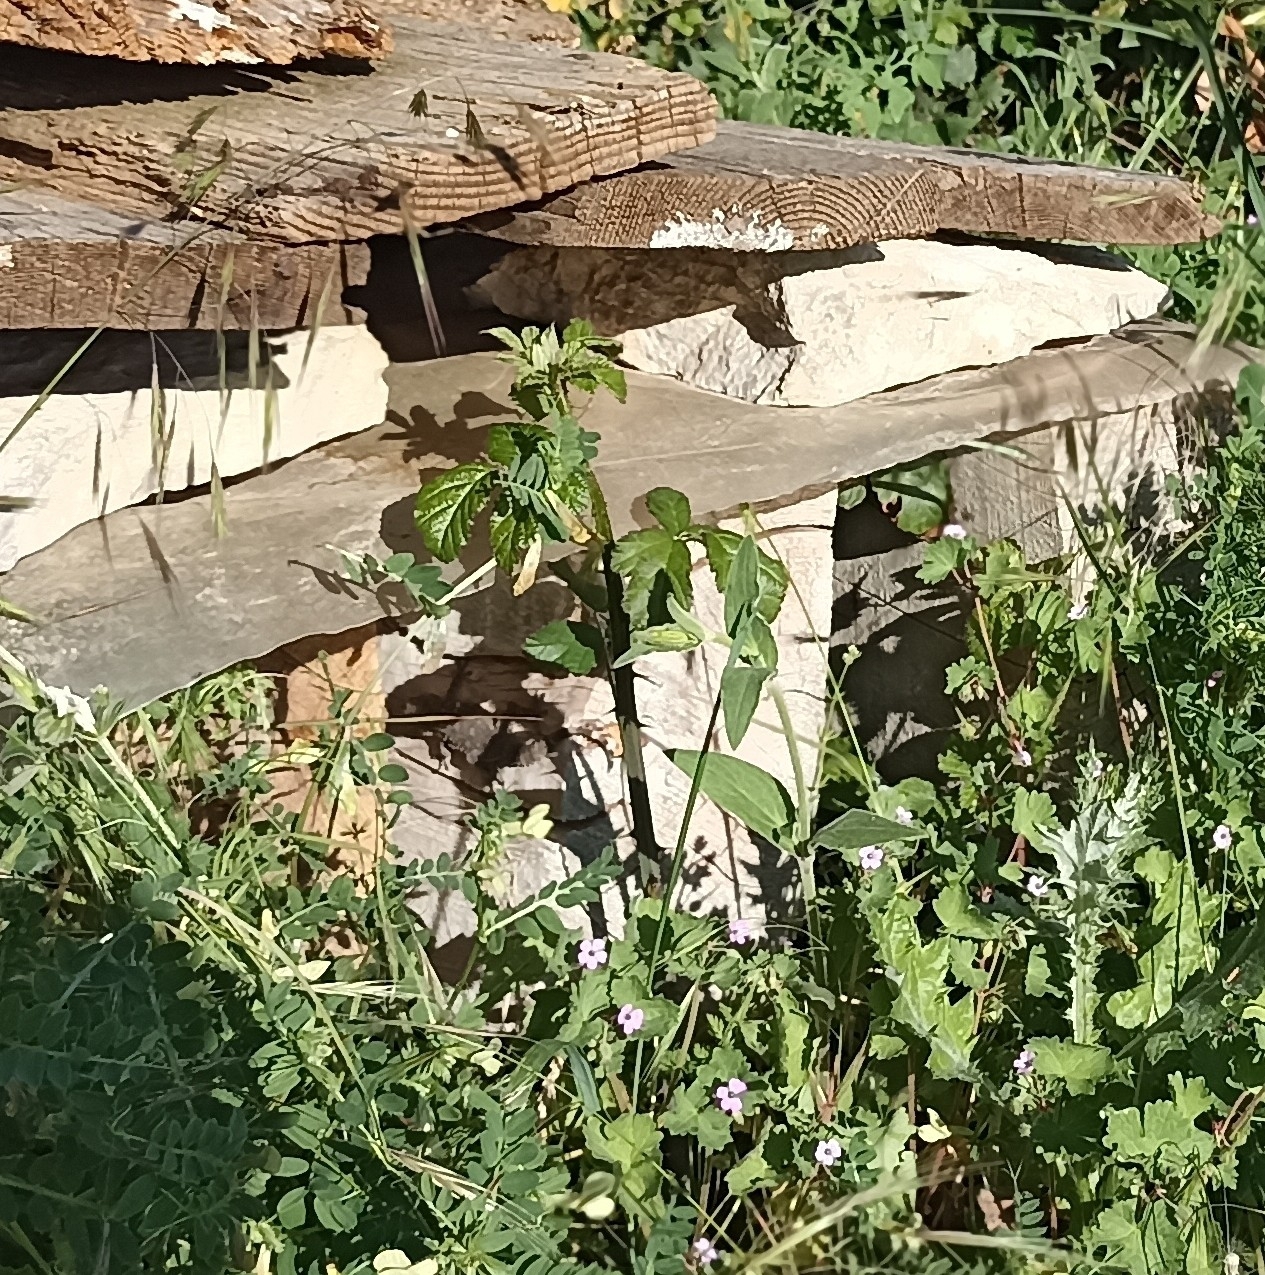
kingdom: Animalia
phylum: Chordata
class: Squamata
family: Phyllodactylidae
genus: Tarentola
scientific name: Tarentola mauritanica
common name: Moorish gecko
